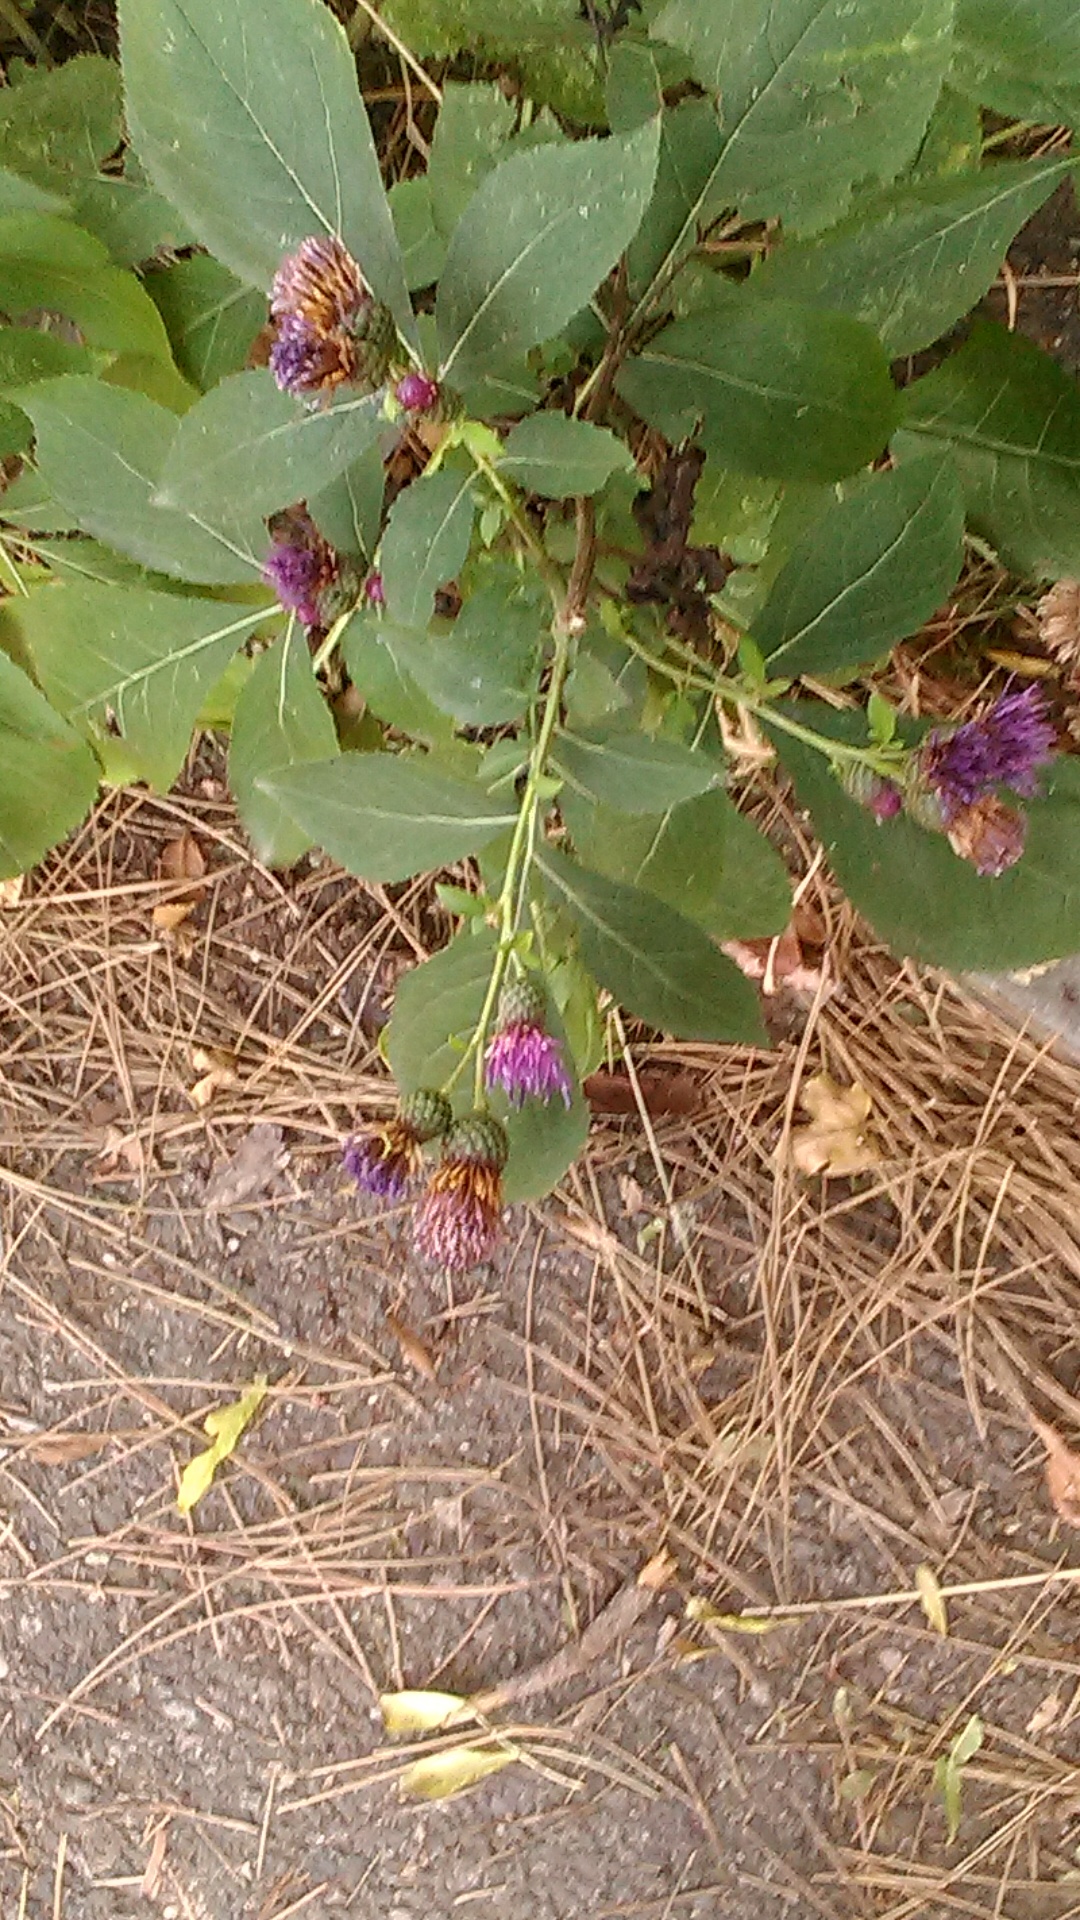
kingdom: Plantae
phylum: Tracheophyta
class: Magnoliopsida
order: Asterales
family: Asteraceae
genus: Klasea
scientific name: Klasea quinquefolia
